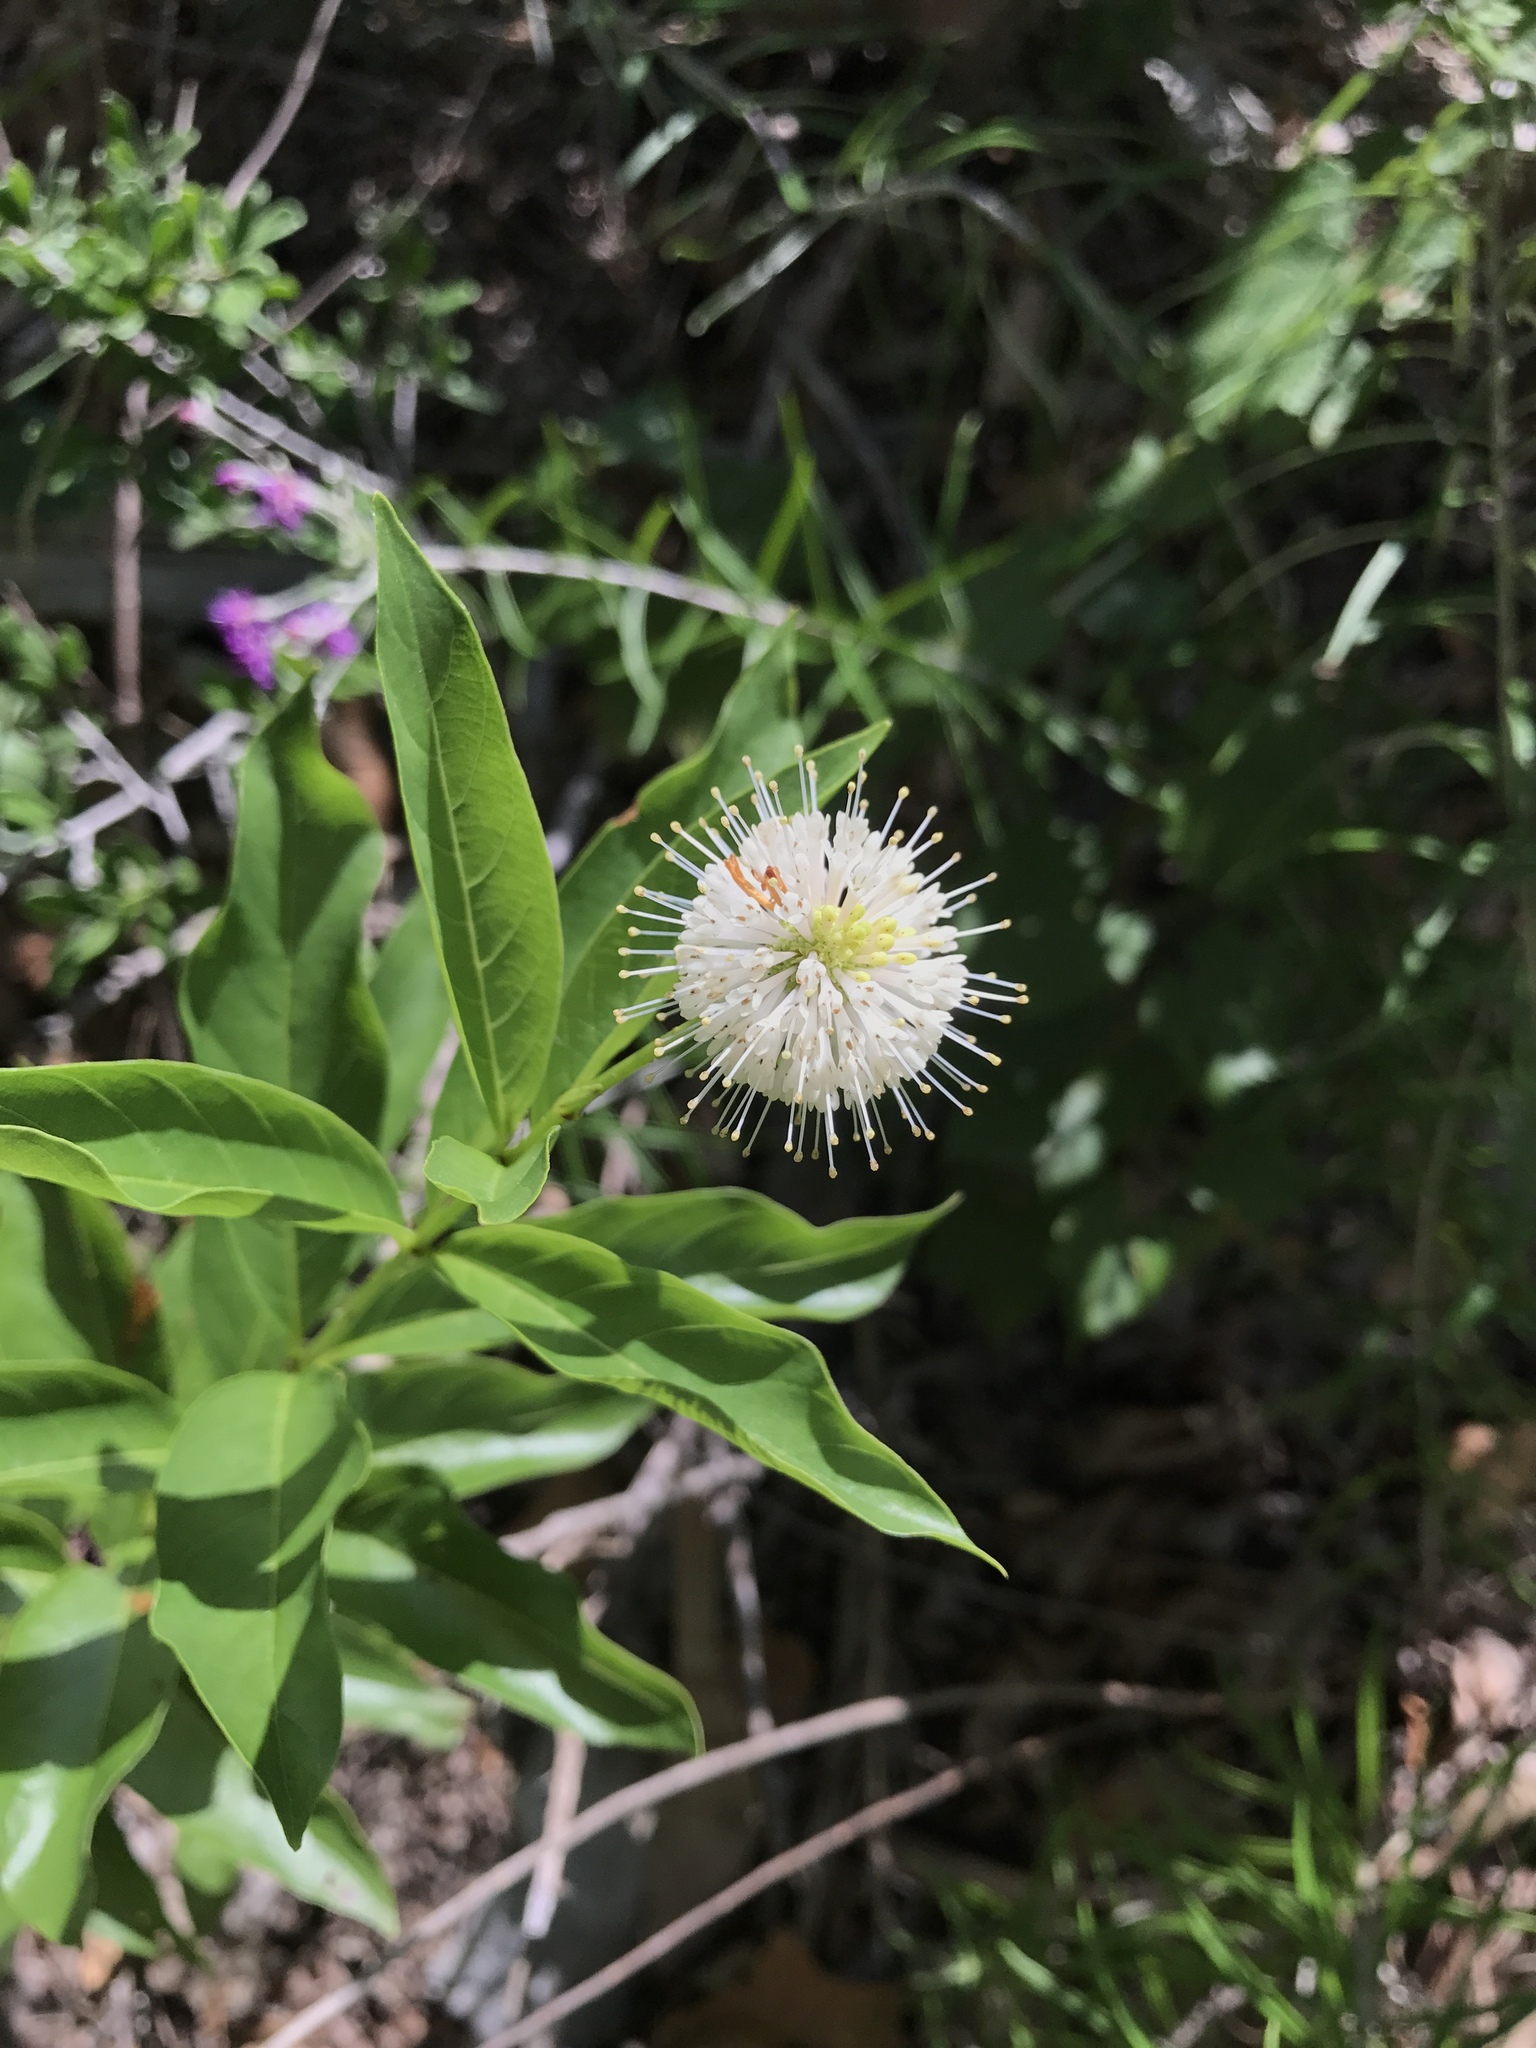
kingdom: Plantae
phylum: Tracheophyta
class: Magnoliopsida
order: Gentianales
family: Rubiaceae
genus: Cephalanthus
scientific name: Cephalanthus occidentalis
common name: Button-willow
